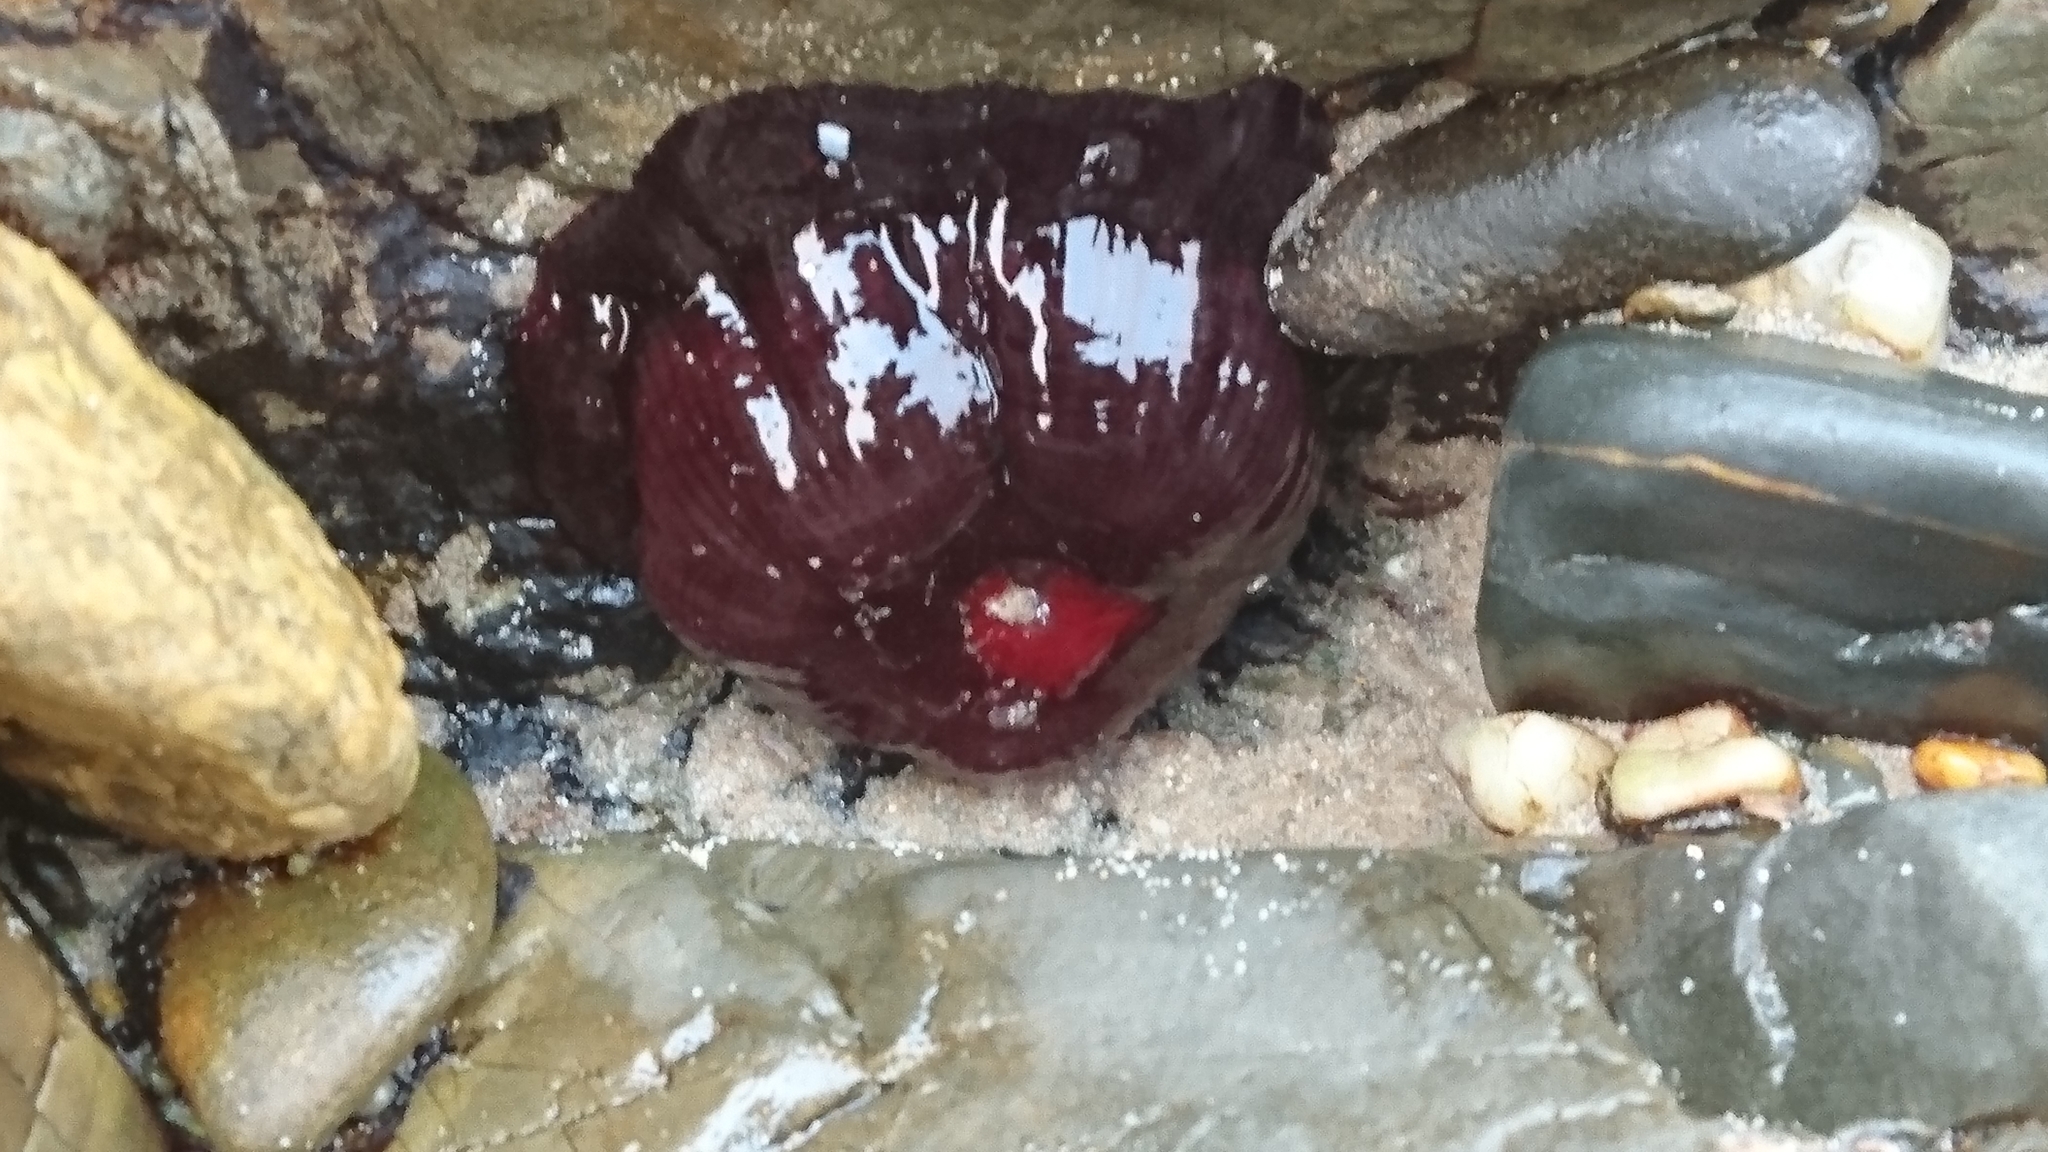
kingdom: Animalia
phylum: Cnidaria
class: Anthozoa
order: Actiniaria
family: Actiniidae
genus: Actinia
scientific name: Actinia tenebrosa
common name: Waratah anemone
